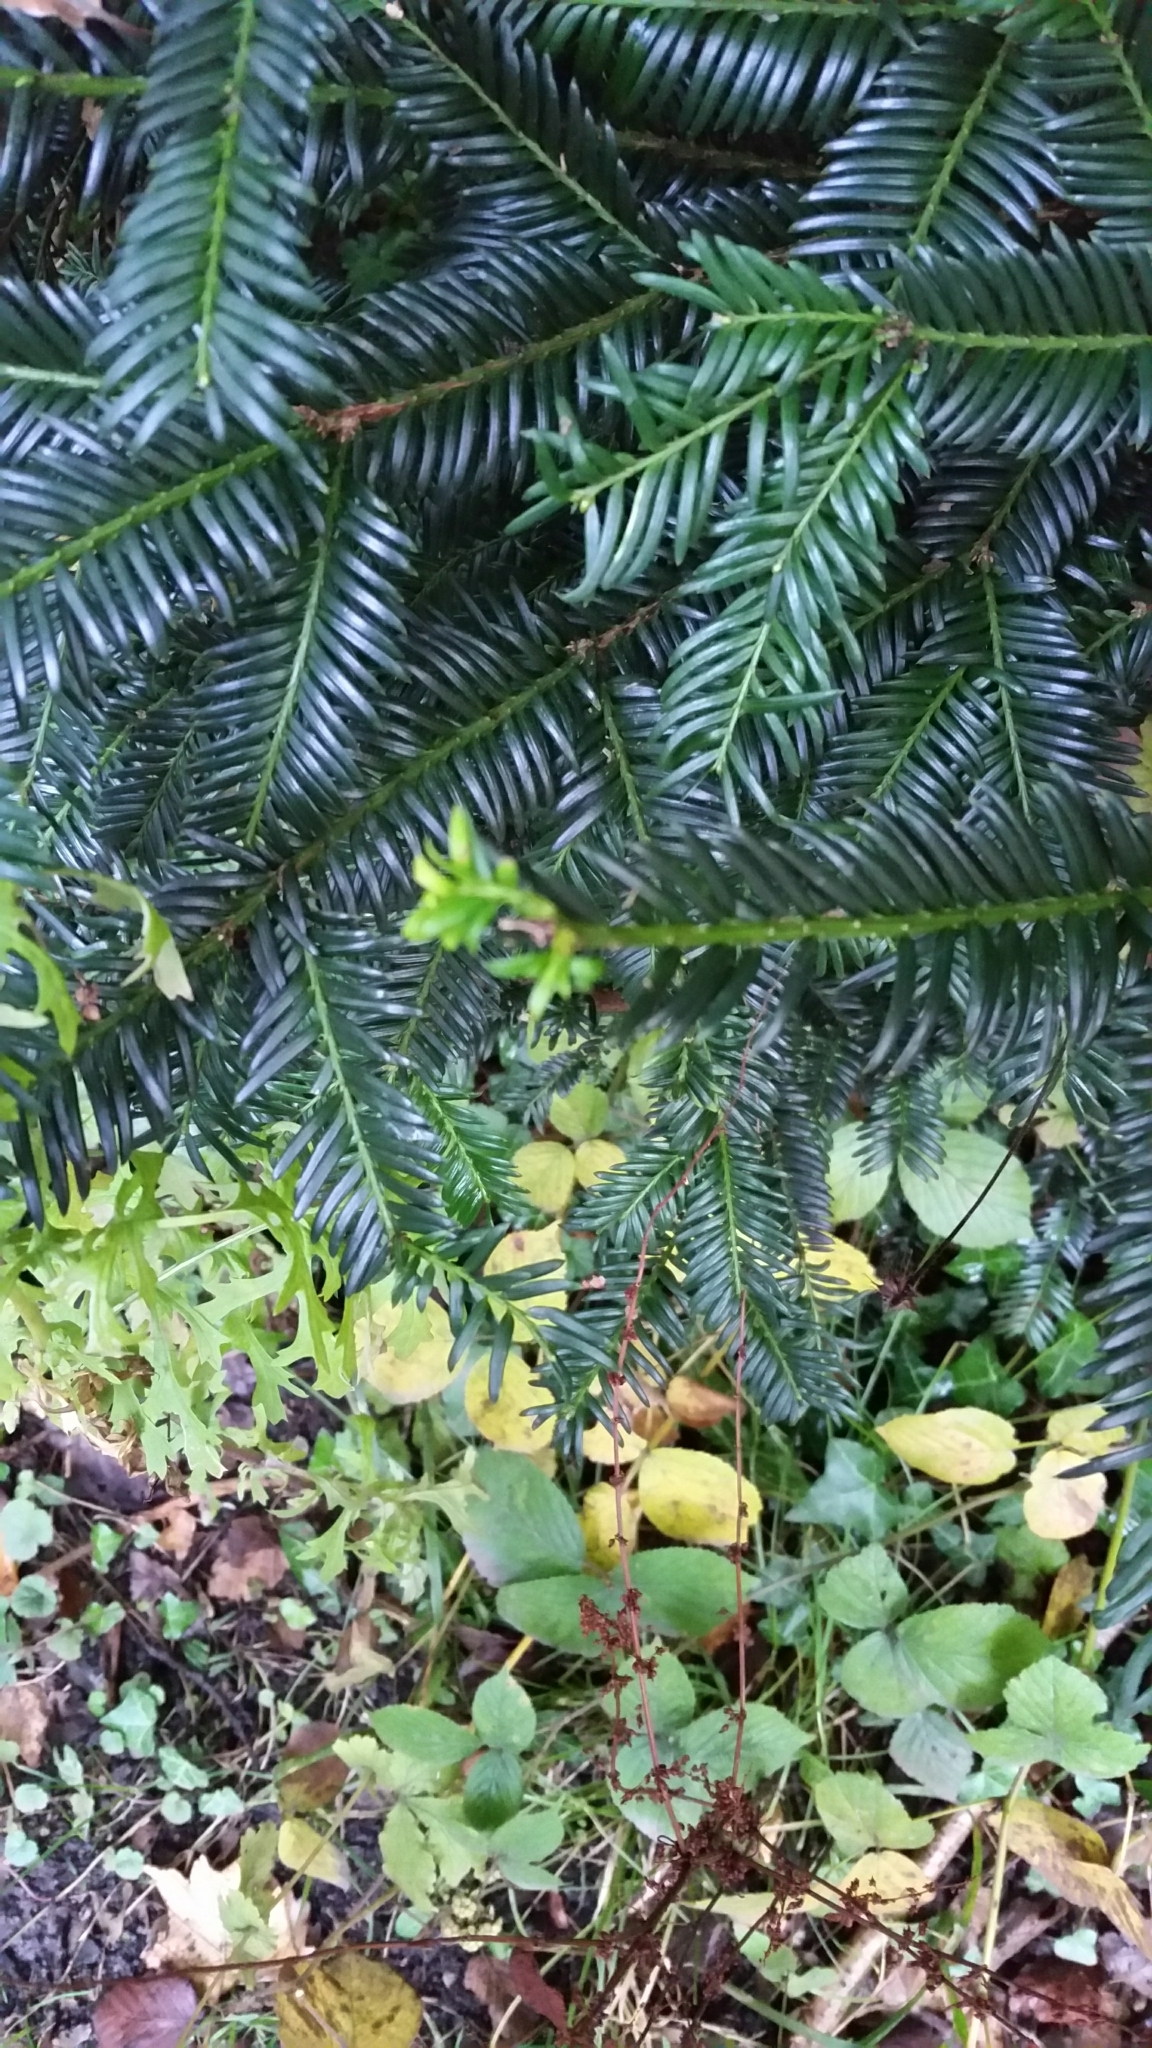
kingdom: Animalia
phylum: Arthropoda
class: Insecta
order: Diptera
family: Cecidomyiidae
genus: Taxomyia
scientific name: Taxomyia taxi
